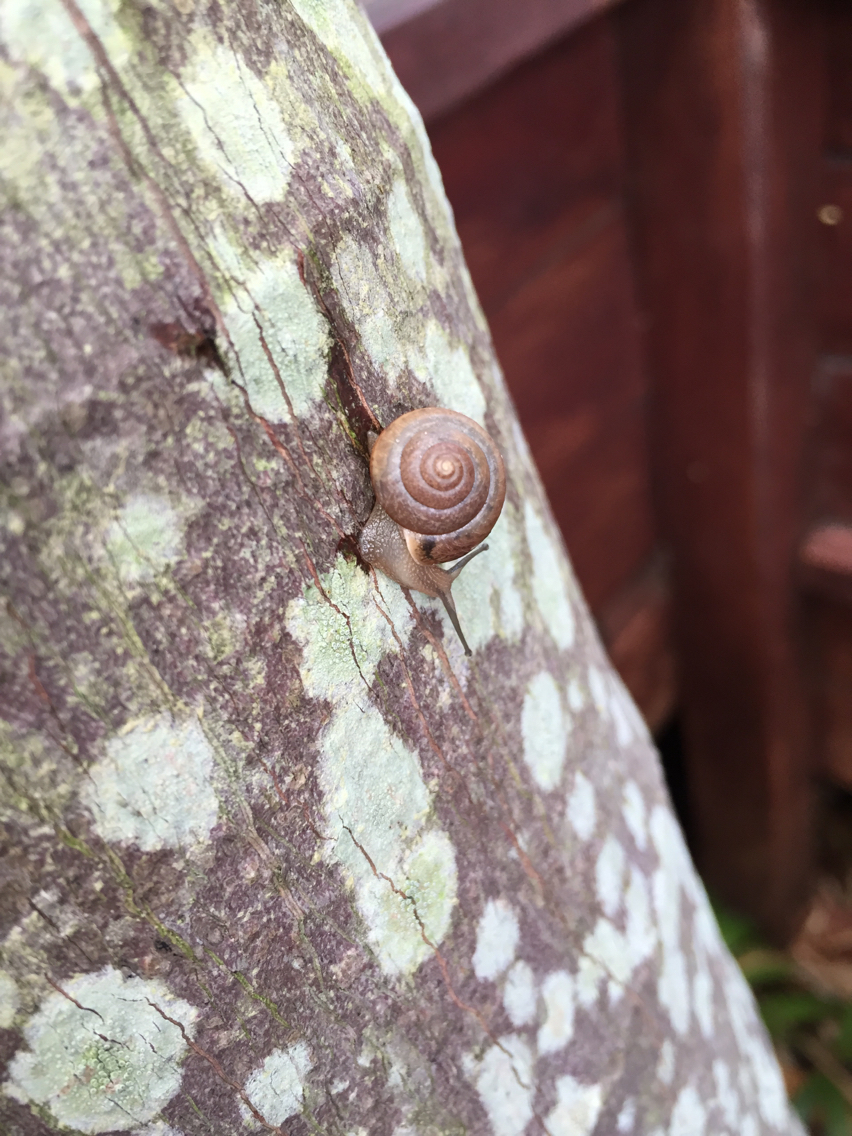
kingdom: Animalia
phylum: Mollusca
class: Gastropoda
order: Stylommatophora
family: Camaenidae
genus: Bradybaena
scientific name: Bradybaena similaris
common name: Asian trampsnail
